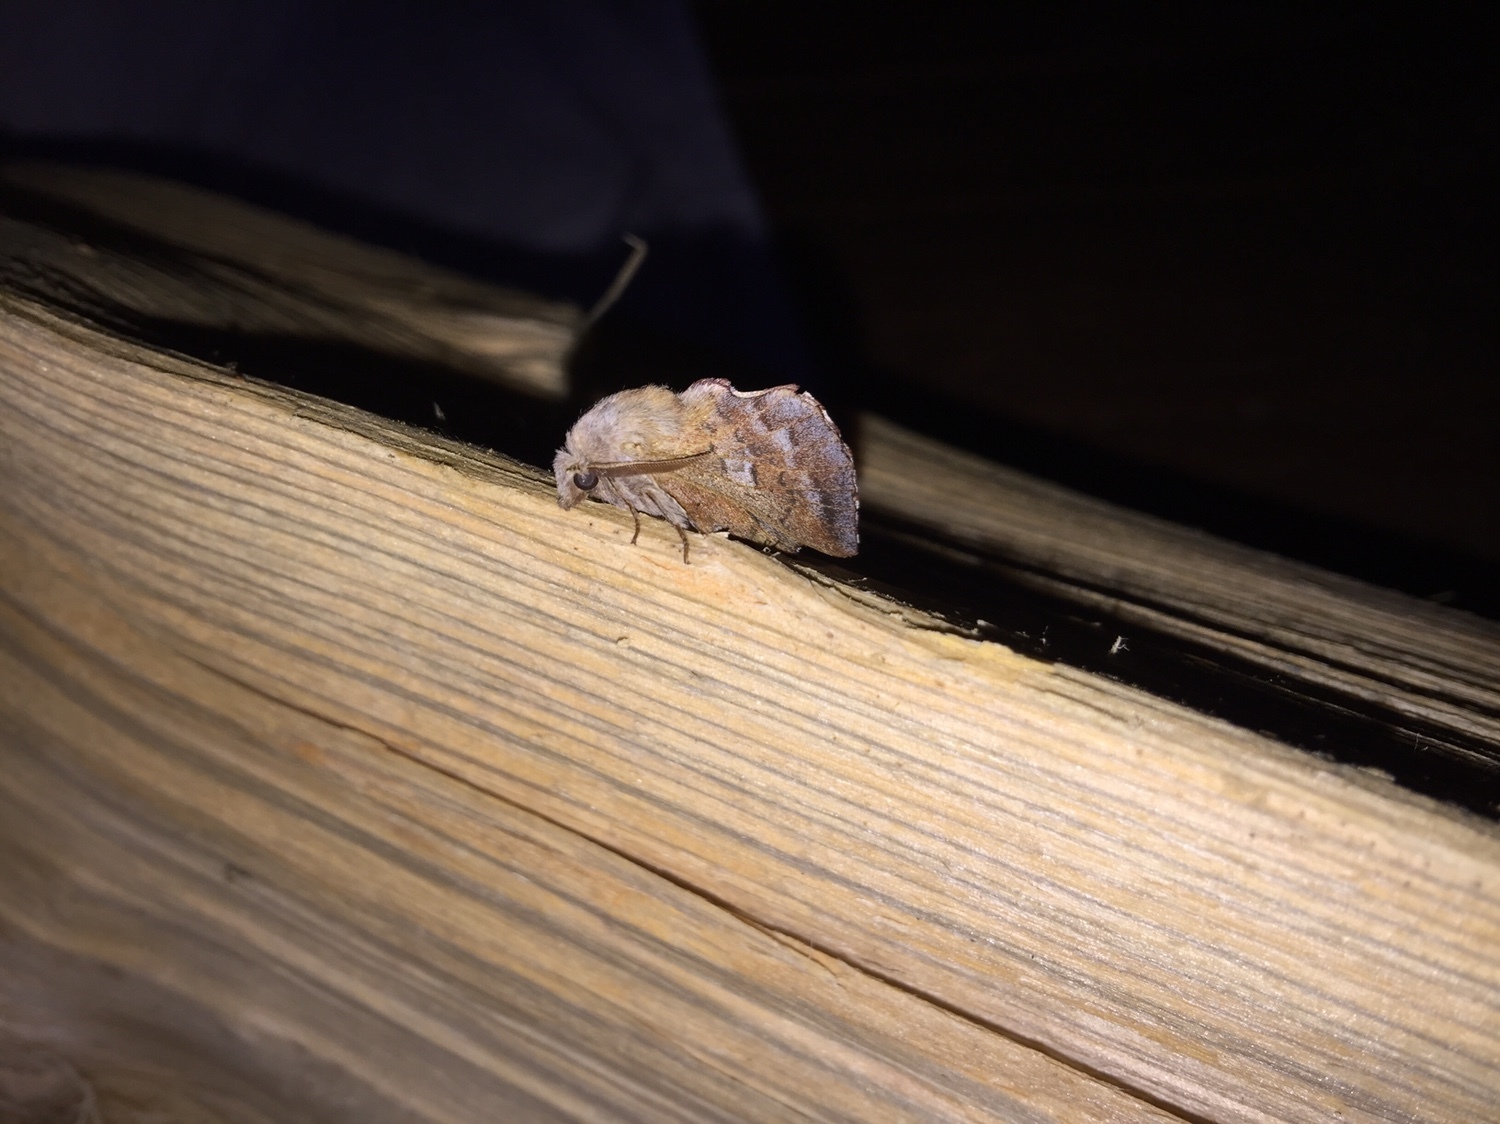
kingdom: Animalia
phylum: Arthropoda
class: Insecta
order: Lepidoptera
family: Lasiocampidae
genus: Phyllodesma
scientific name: Phyllodesma americana
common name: American lappet moth
